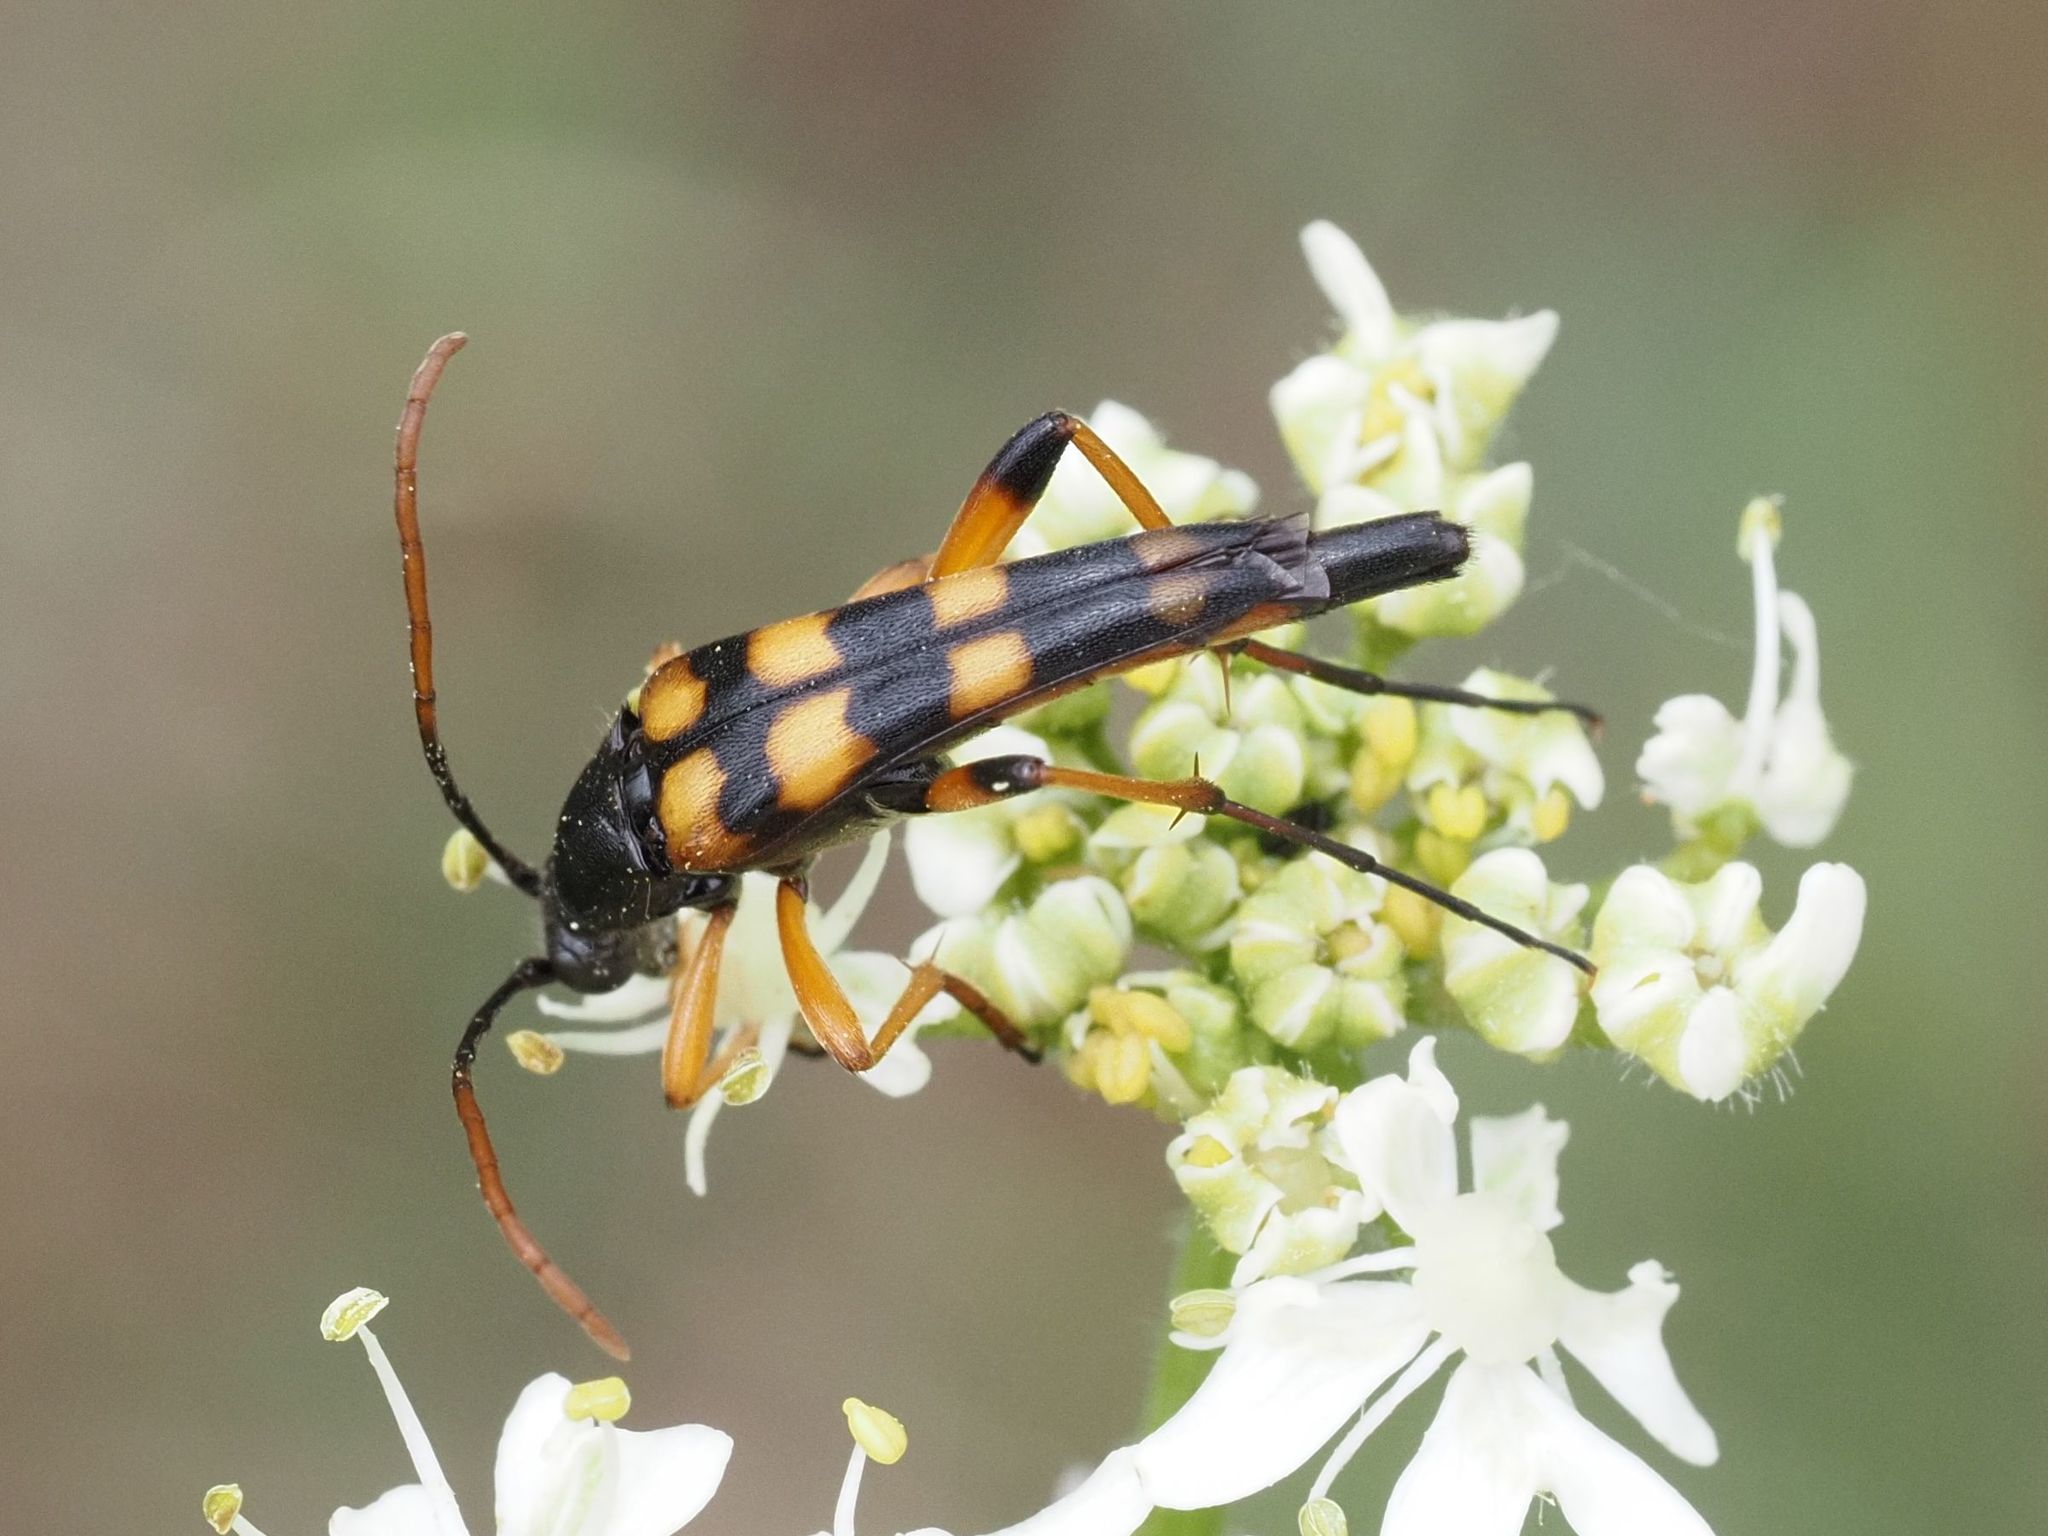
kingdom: Animalia
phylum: Arthropoda
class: Insecta
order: Coleoptera
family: Cerambycidae
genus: Strangalia
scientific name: Strangalia attenuata
